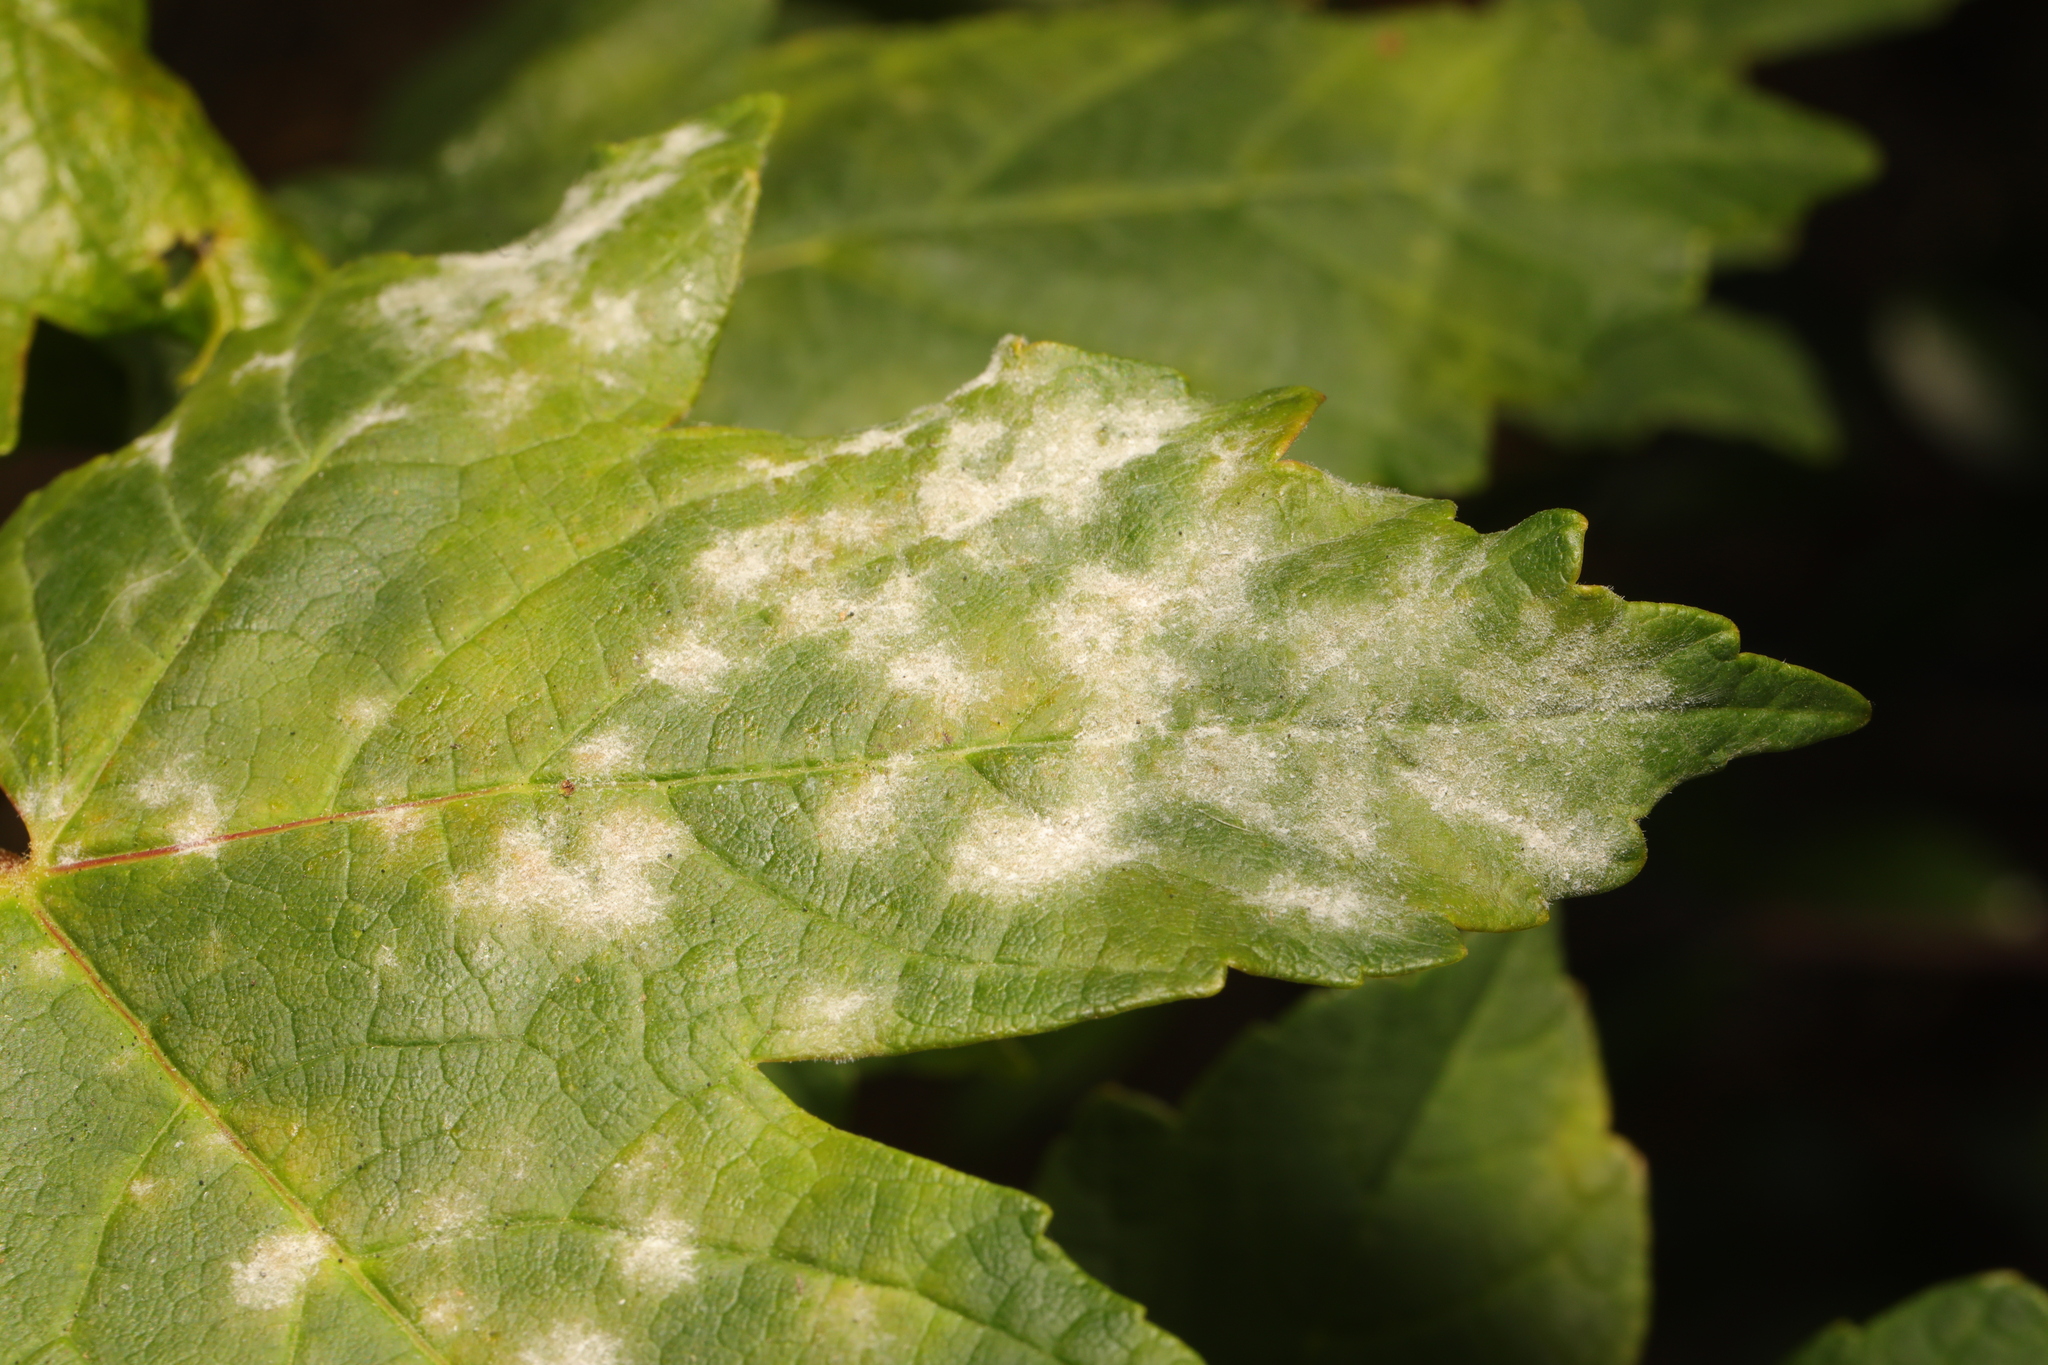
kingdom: Fungi
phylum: Ascomycota
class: Leotiomycetes
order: Helotiales
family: Erysiphaceae
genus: Sawadaea
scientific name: Sawadaea bicornis
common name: Maple mildew
